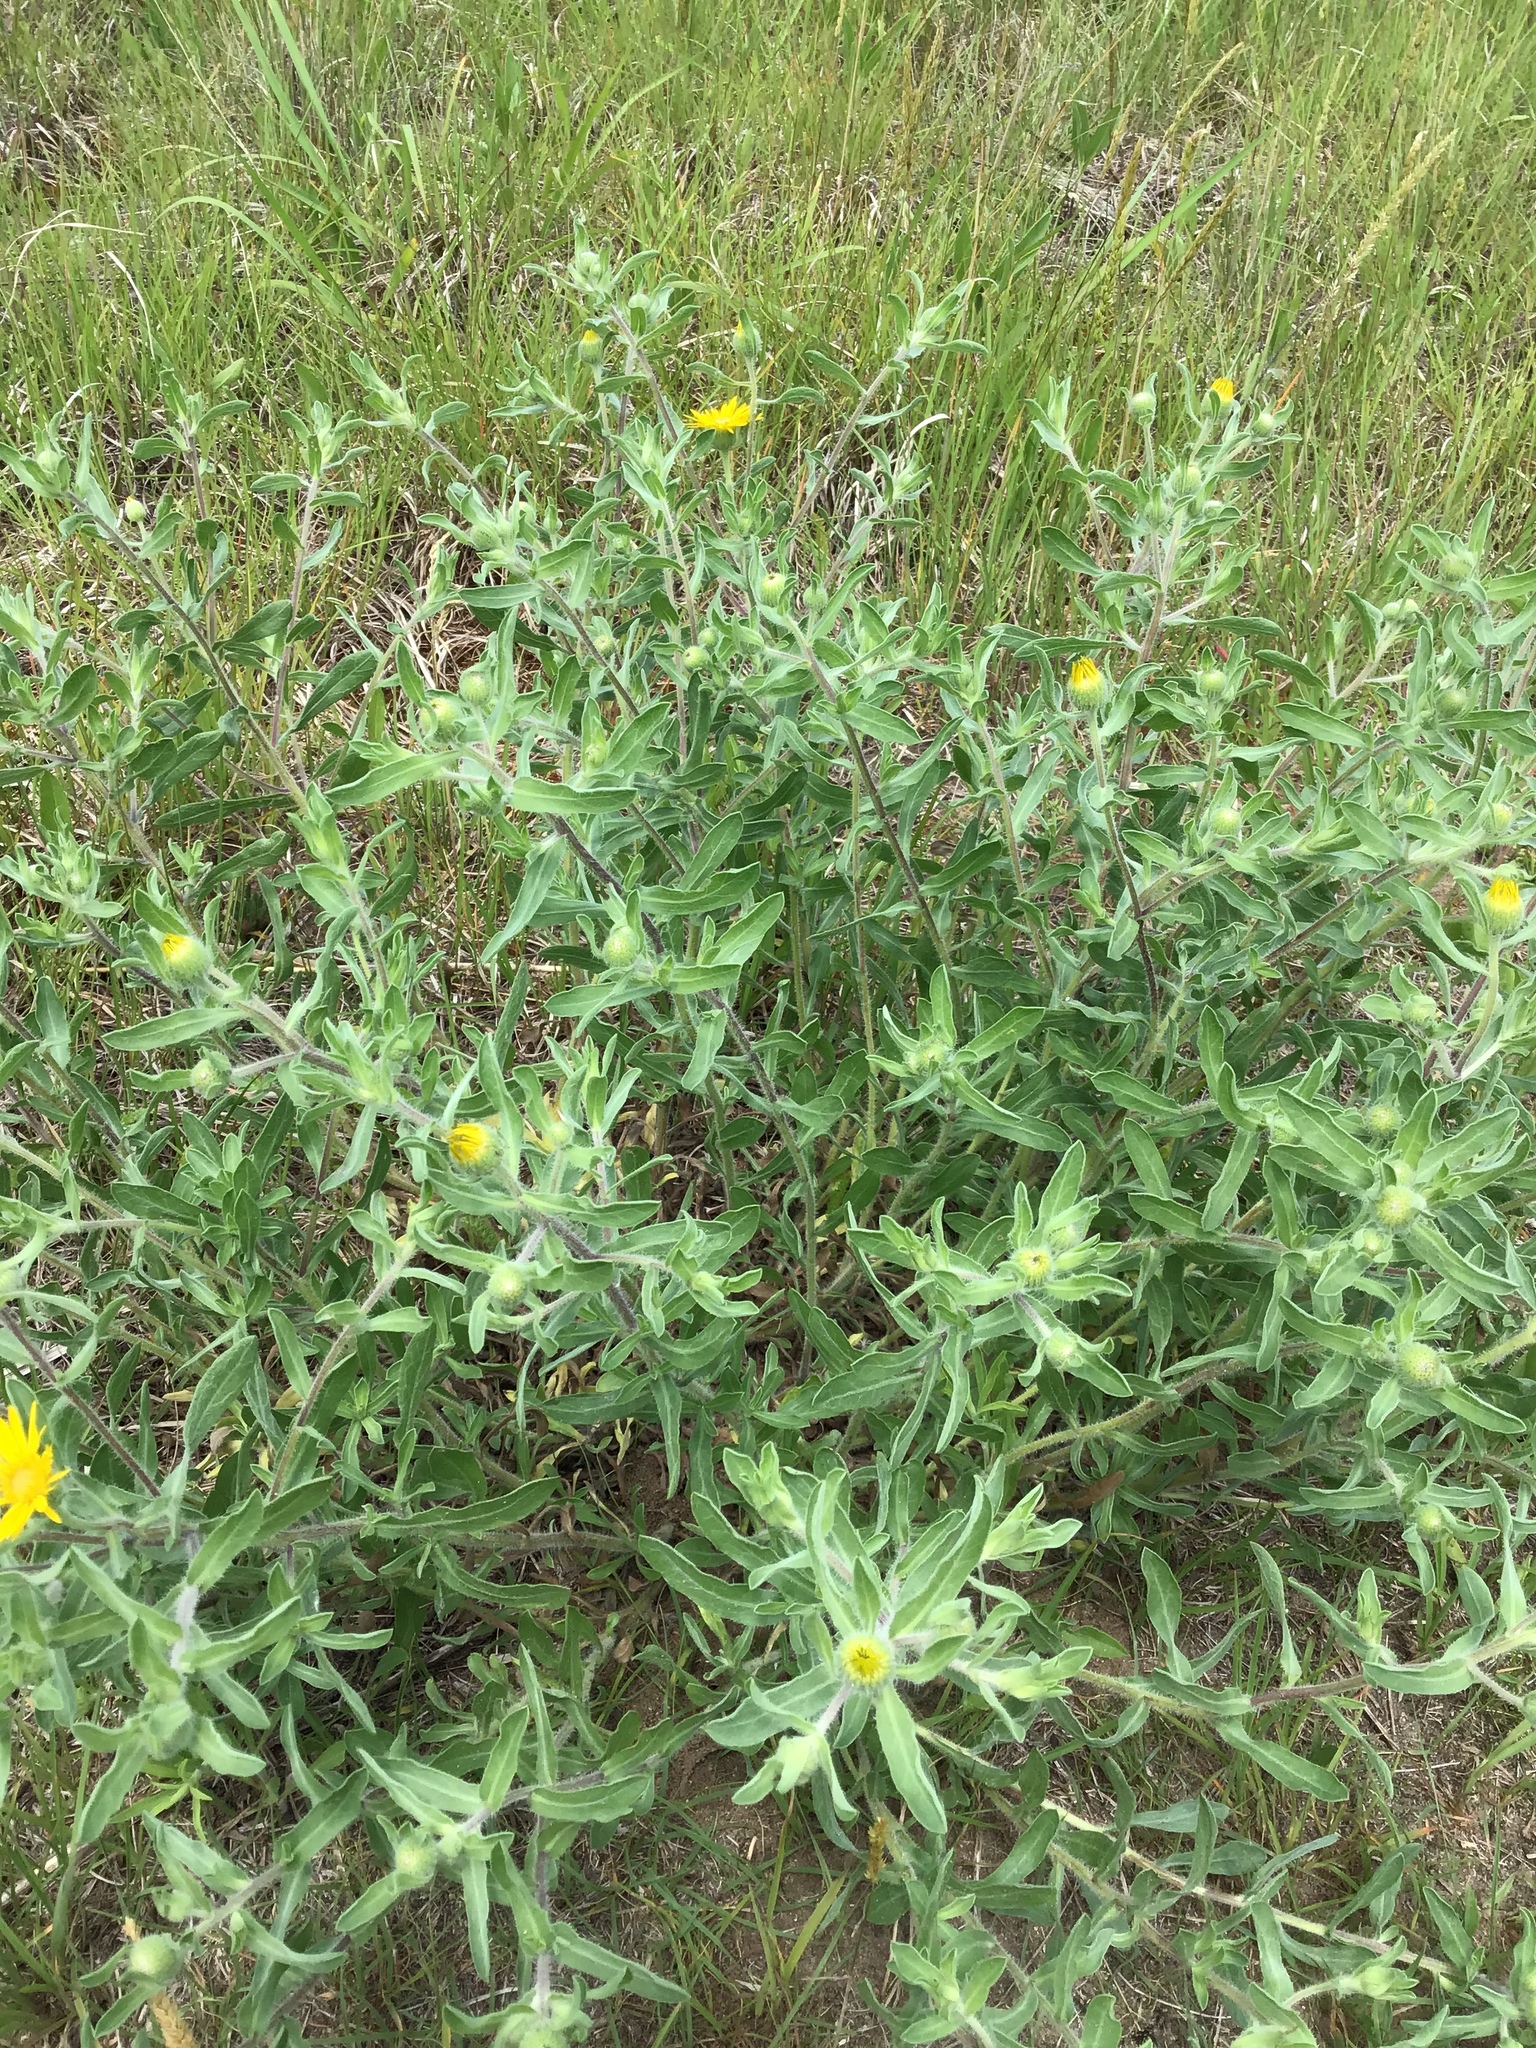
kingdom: Plantae
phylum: Tracheophyta
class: Magnoliopsida
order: Asterales
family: Asteraceae
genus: Heterotheca
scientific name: Heterotheca villosa
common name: Hairy false goldenaster
